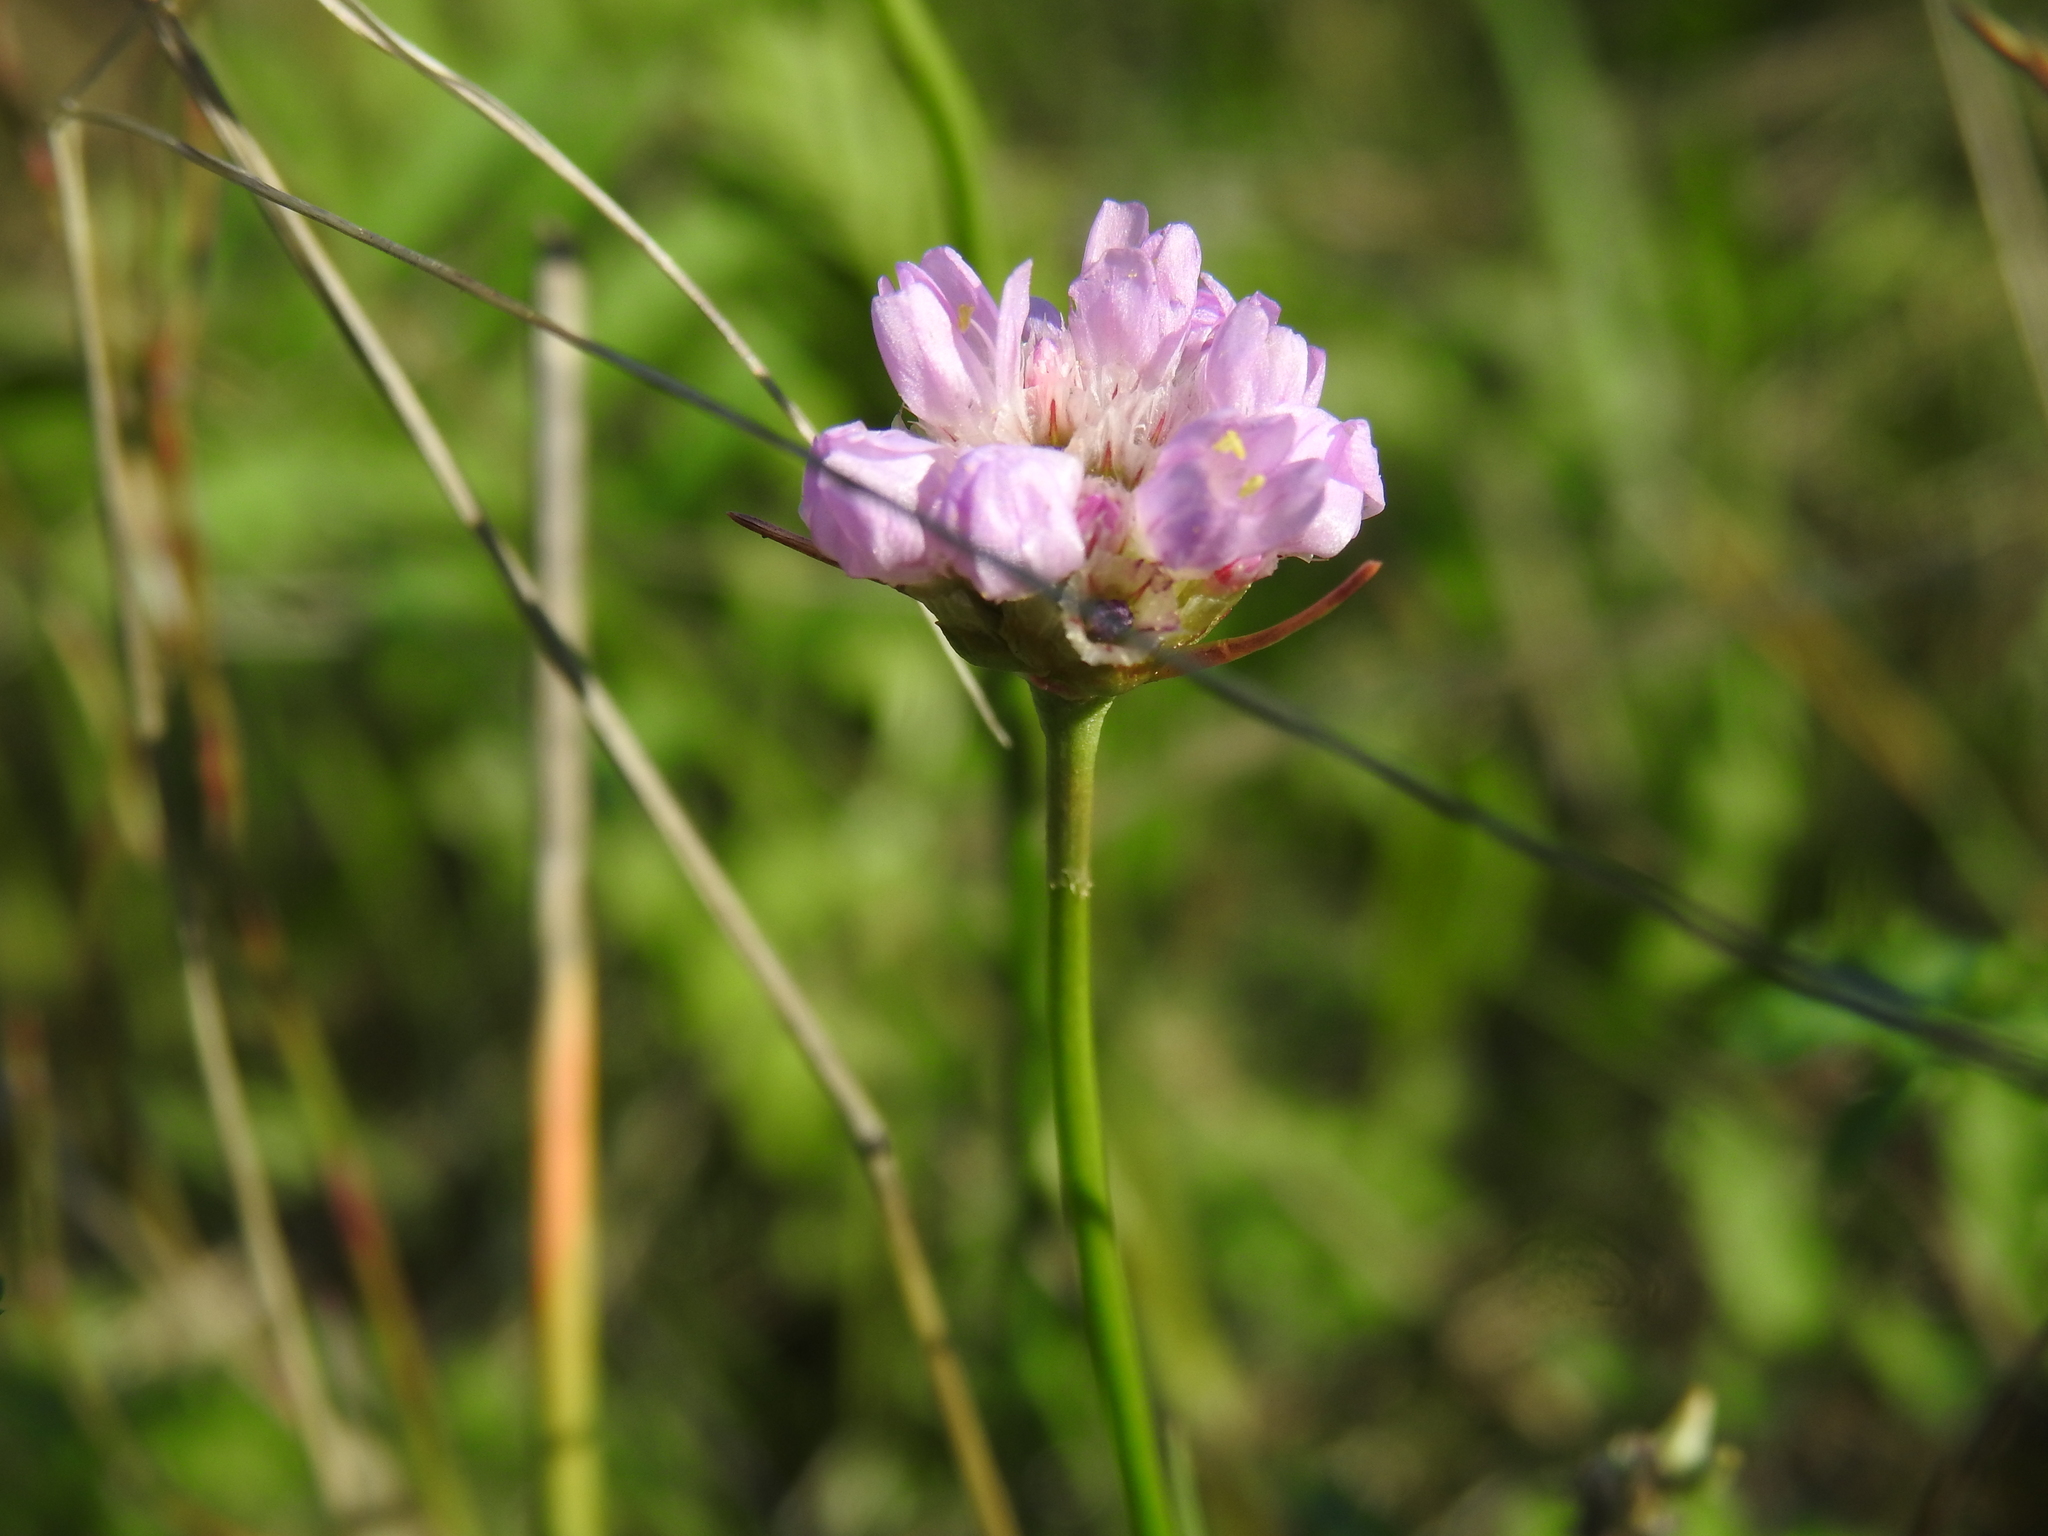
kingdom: Plantae
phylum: Tracheophyta
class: Magnoliopsida
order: Caryophyllales
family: Plumbaginaceae
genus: Armeria
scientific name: Armeria maritima
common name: Thrift
